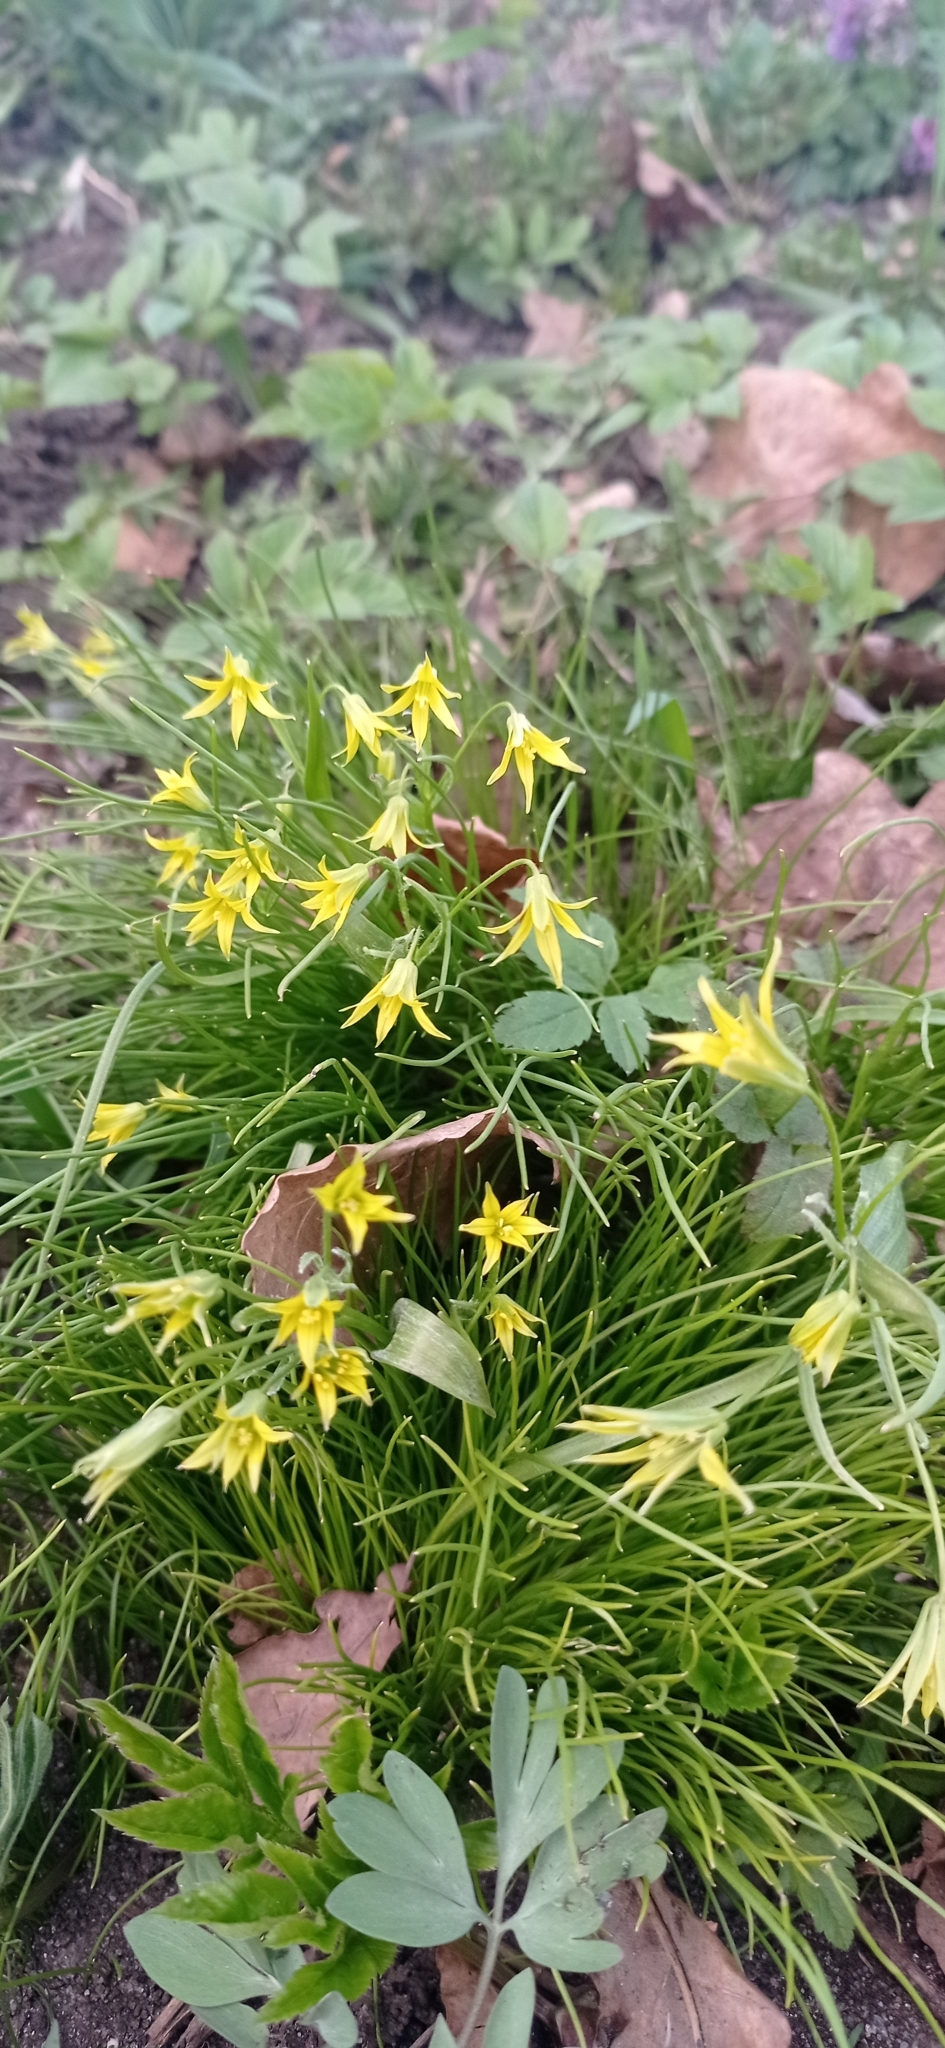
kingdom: Plantae
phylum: Tracheophyta
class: Liliopsida
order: Liliales
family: Liliaceae
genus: Gagea
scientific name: Gagea minima
